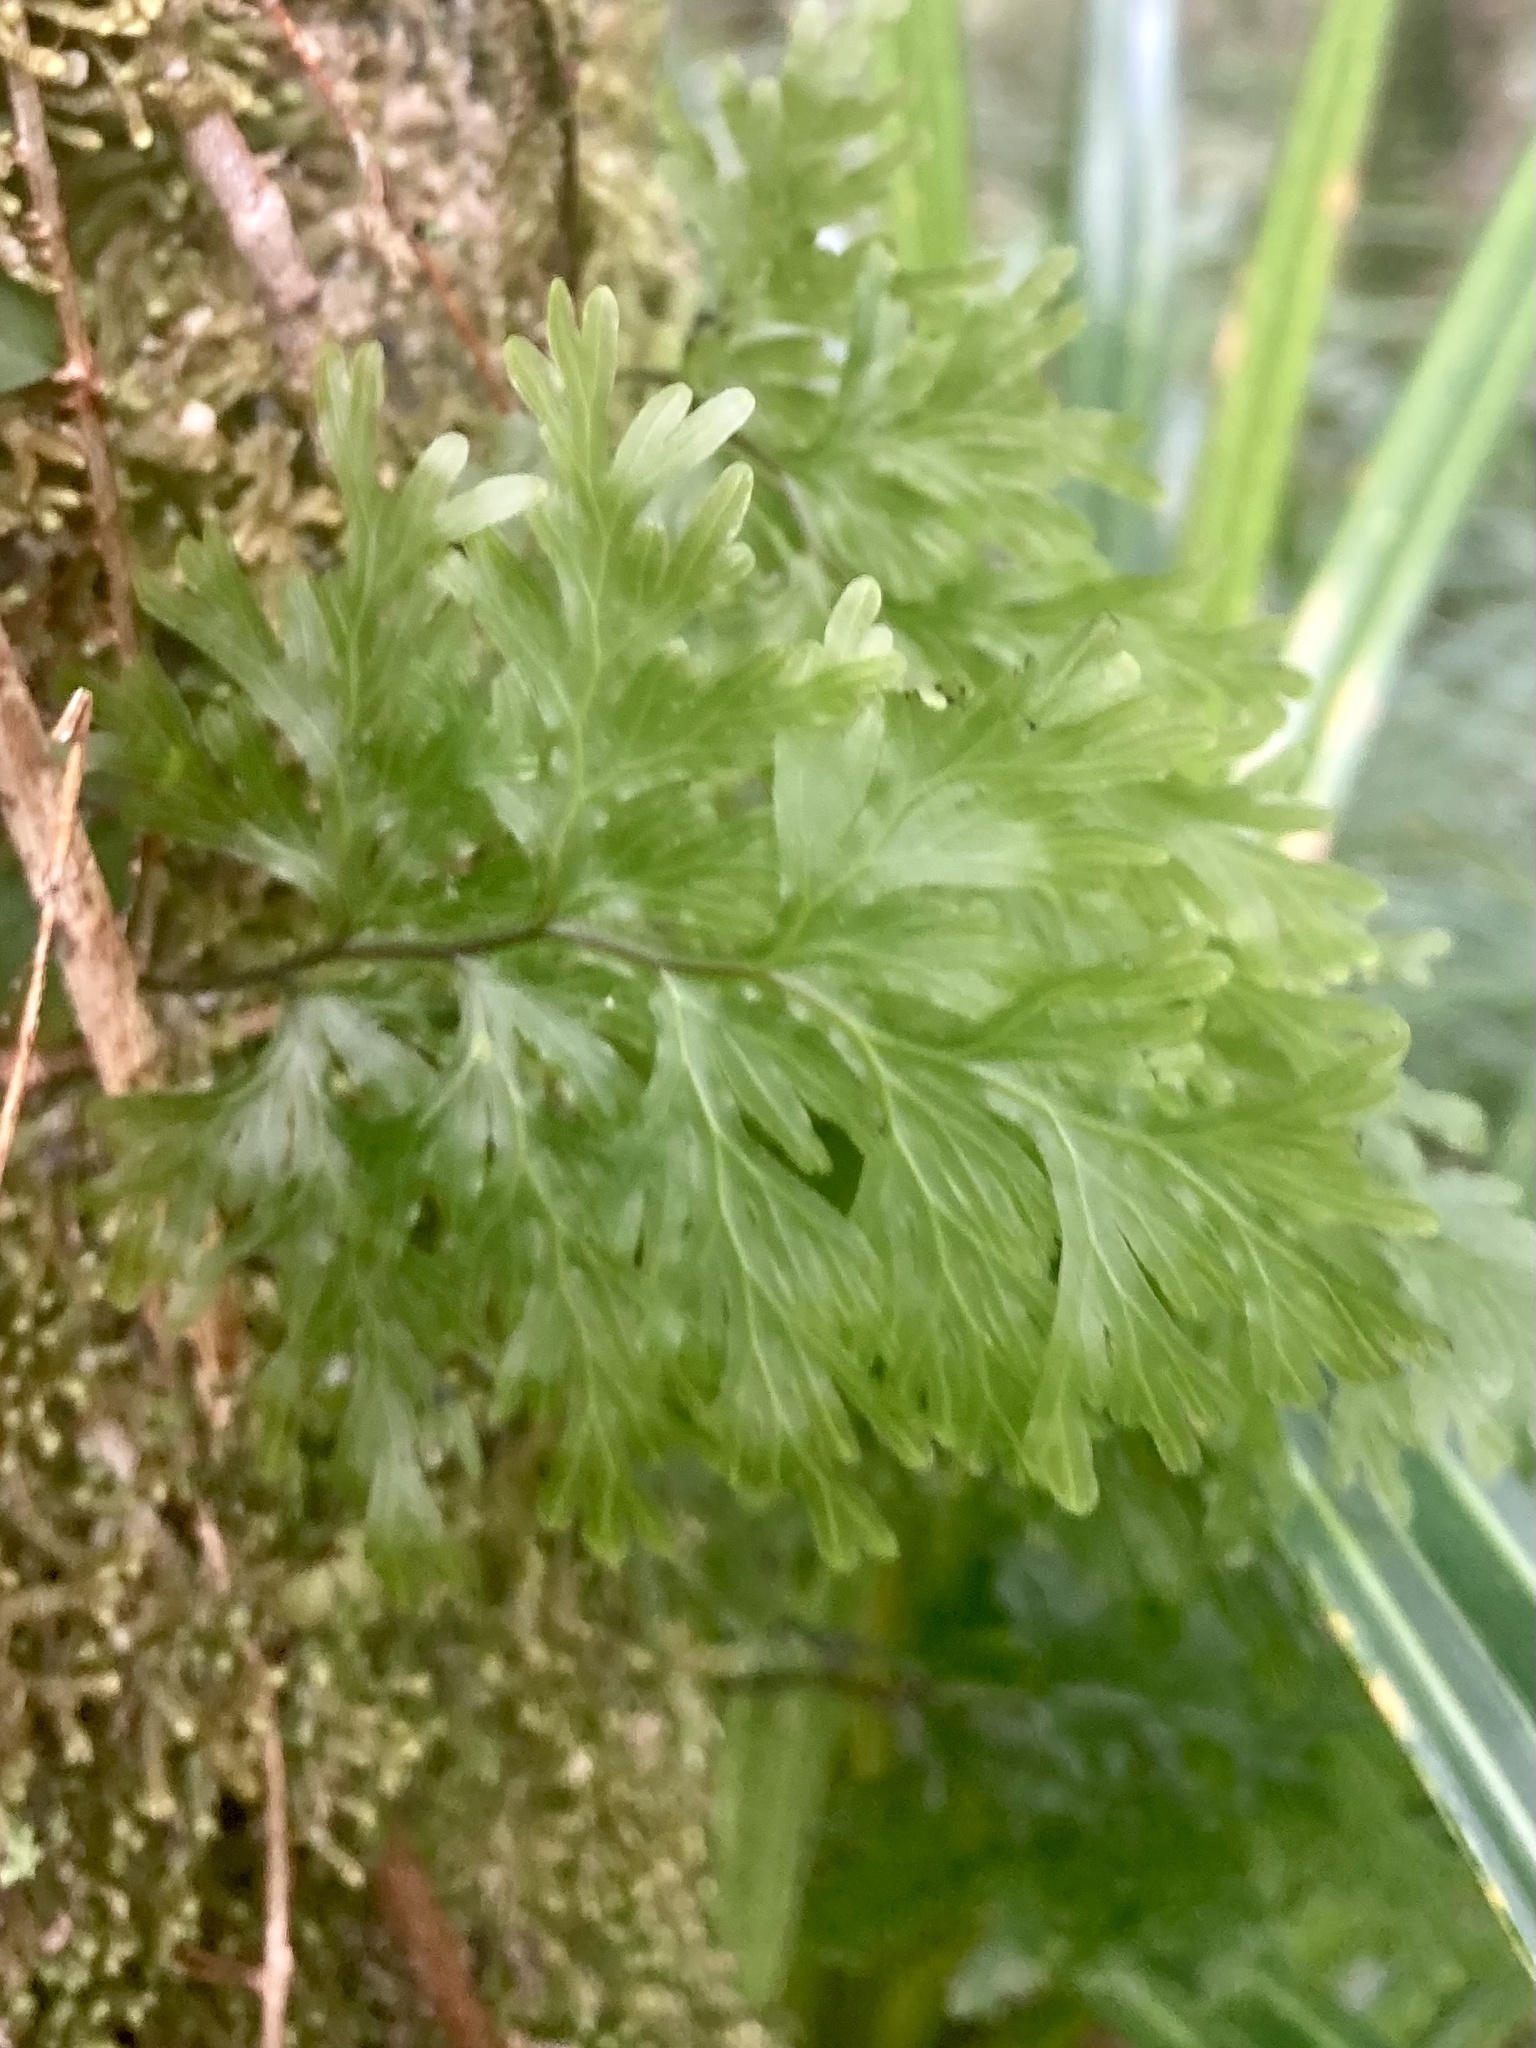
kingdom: Plantae
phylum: Tracheophyta
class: Polypodiopsida
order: Hymenophyllales
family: Hymenophyllaceae
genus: Hymenophyllum
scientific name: Hymenophyllum dilatatum
